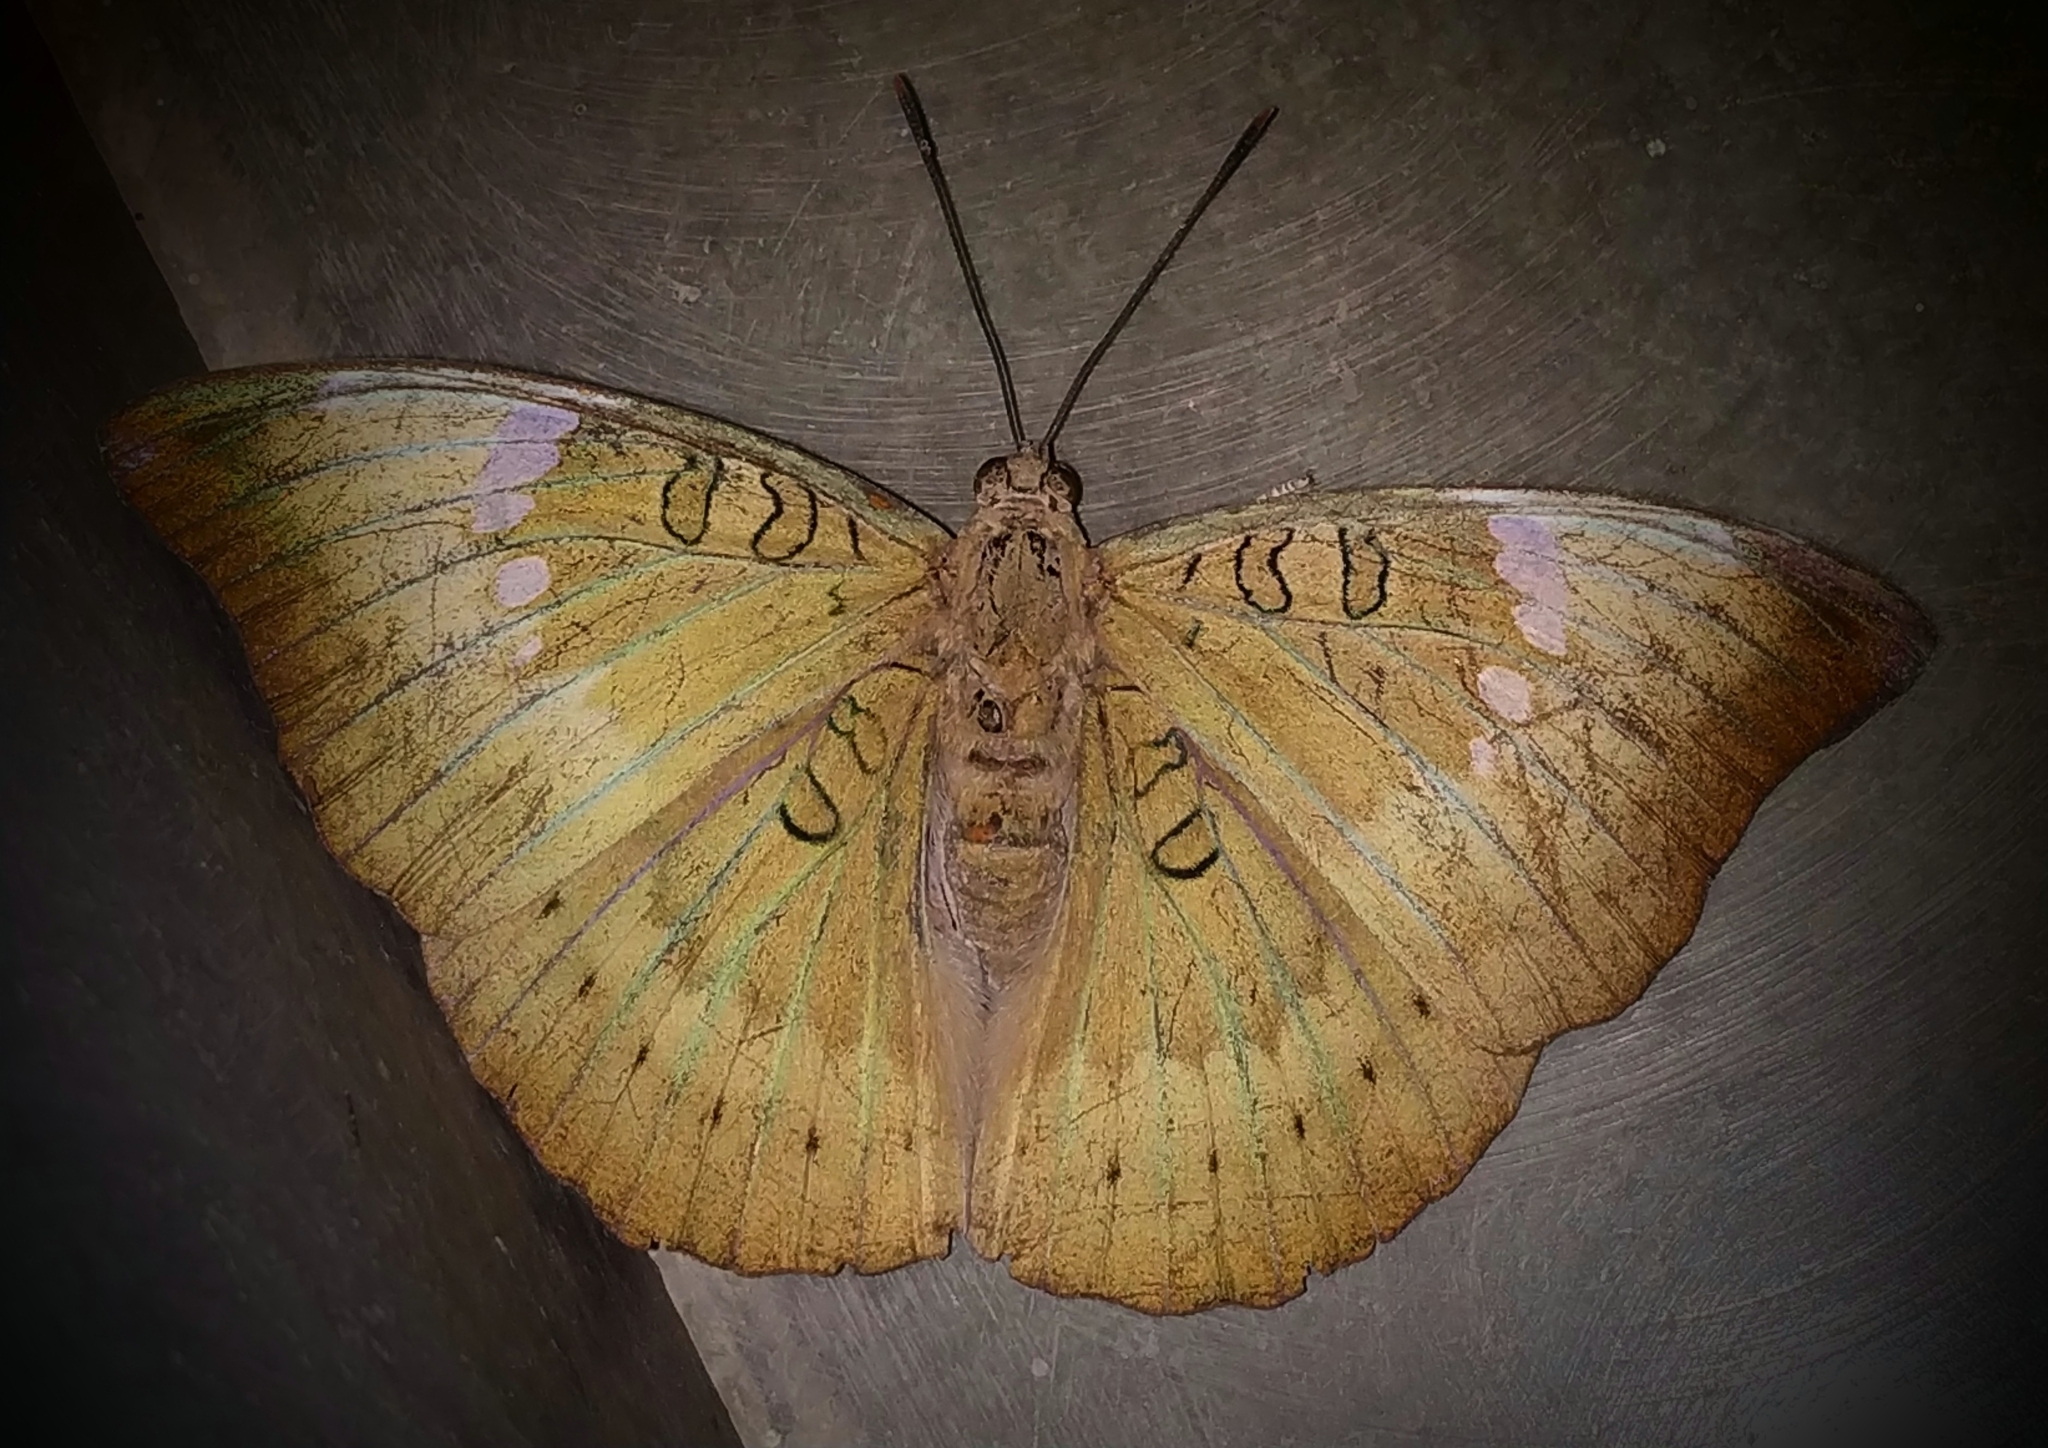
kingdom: Animalia
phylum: Arthropoda
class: Insecta
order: Lepidoptera
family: Nymphalidae
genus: Euthalia
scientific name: Euthalia aconthea
